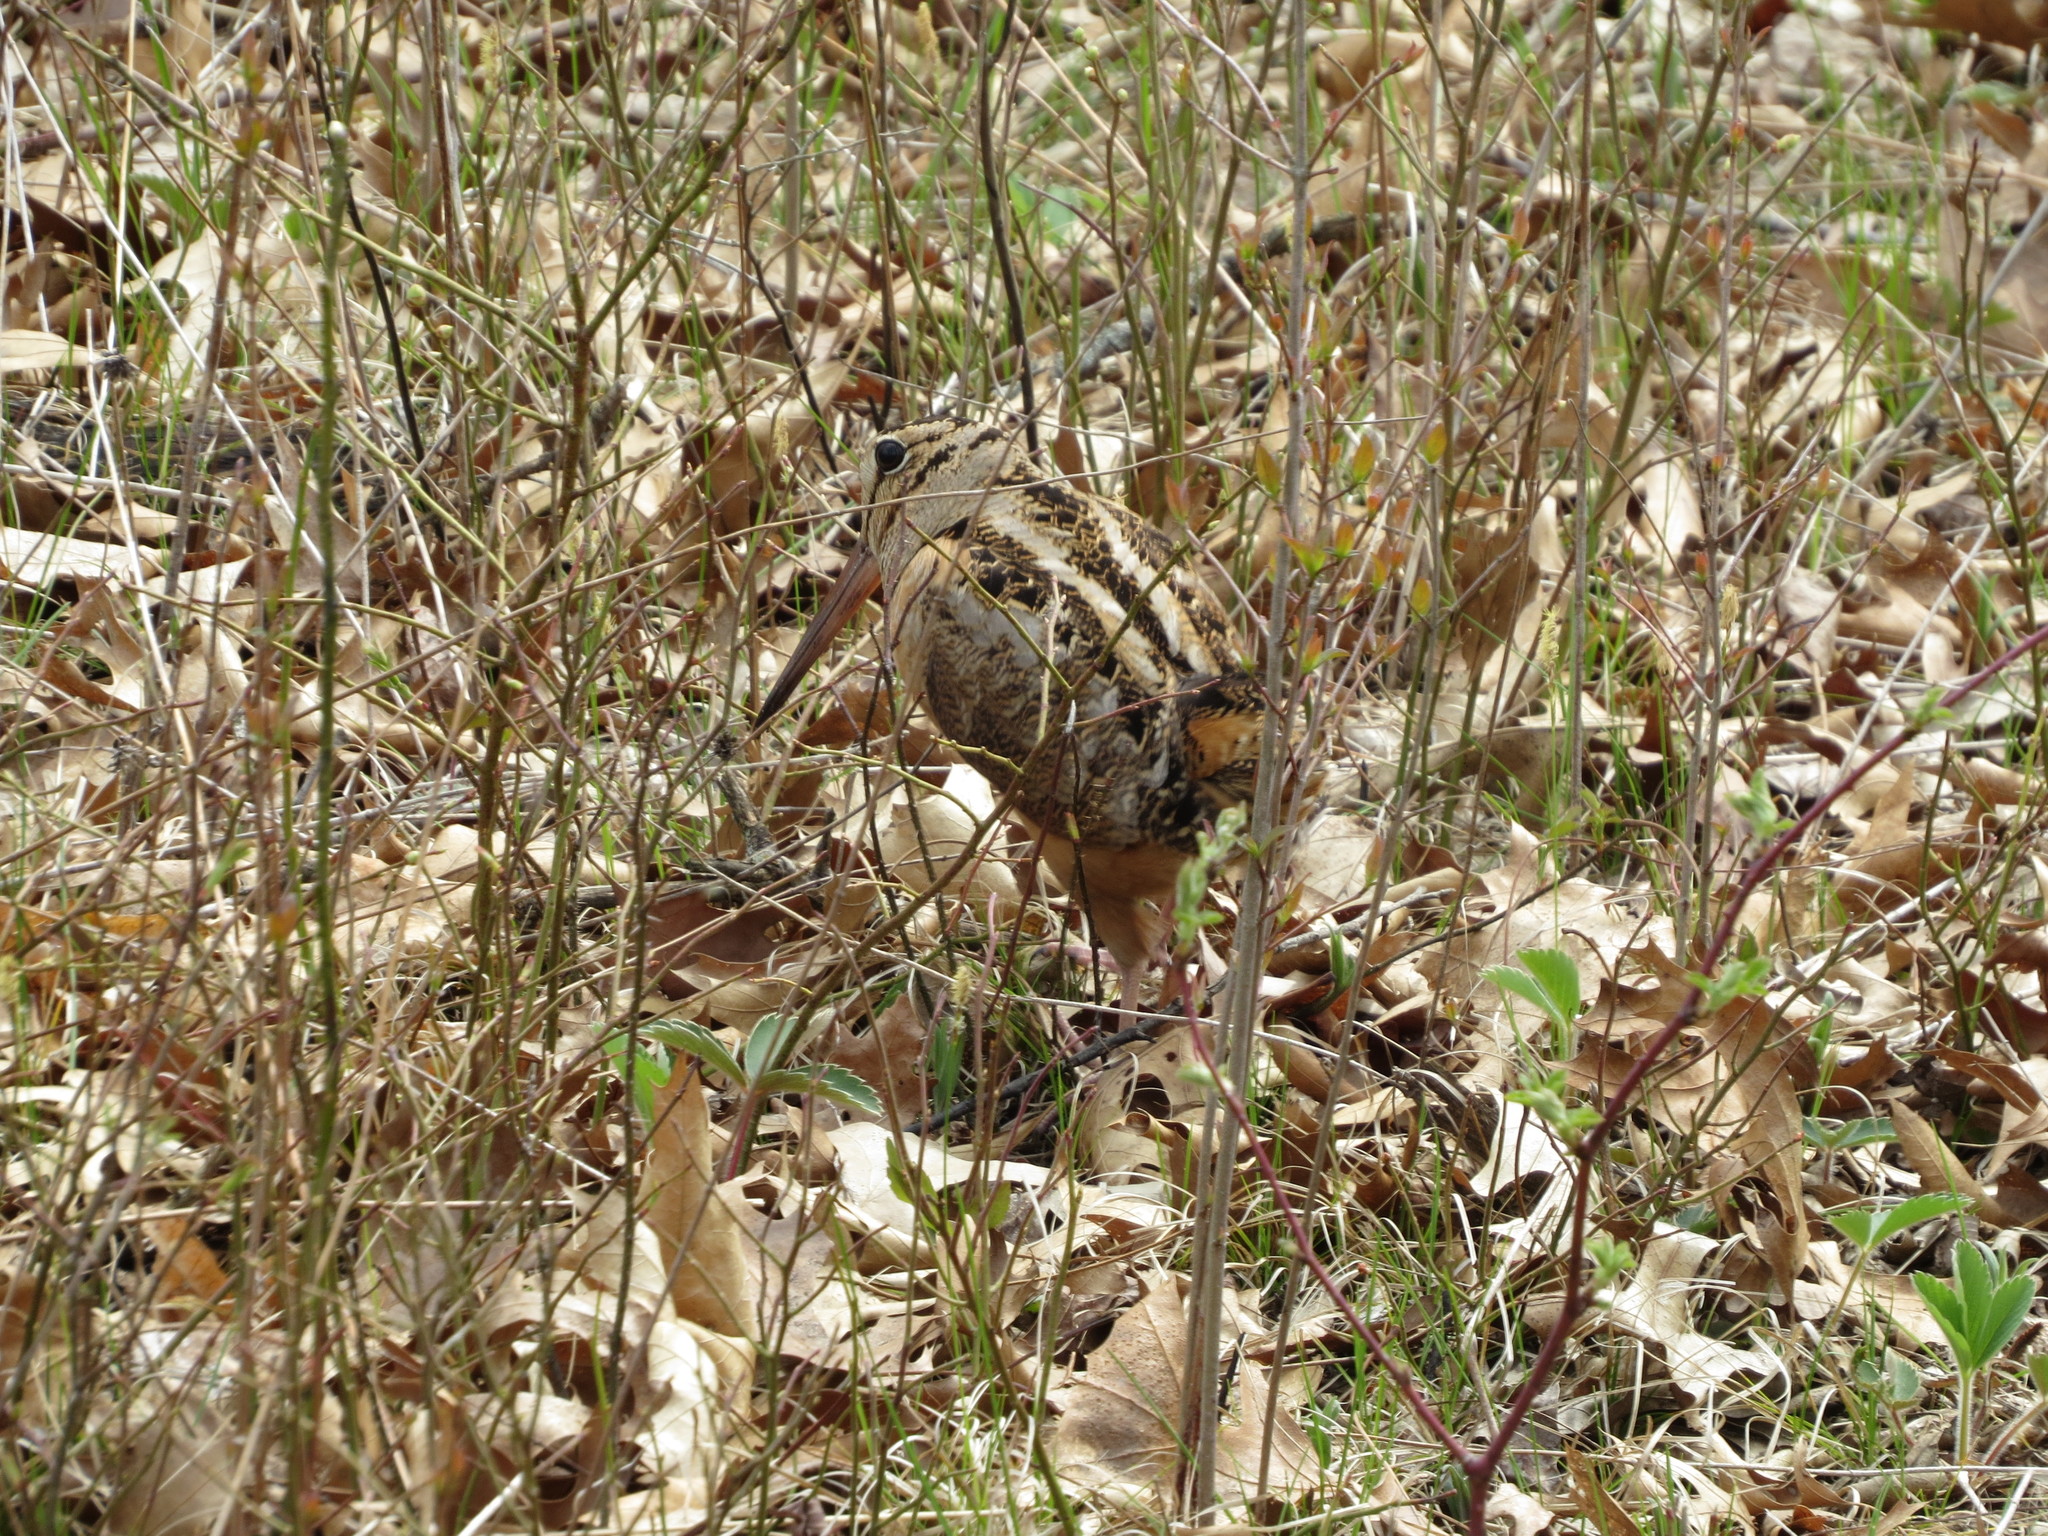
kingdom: Animalia
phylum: Chordata
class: Aves
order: Charadriiformes
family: Scolopacidae
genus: Scolopax
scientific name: Scolopax minor
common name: American woodcock
